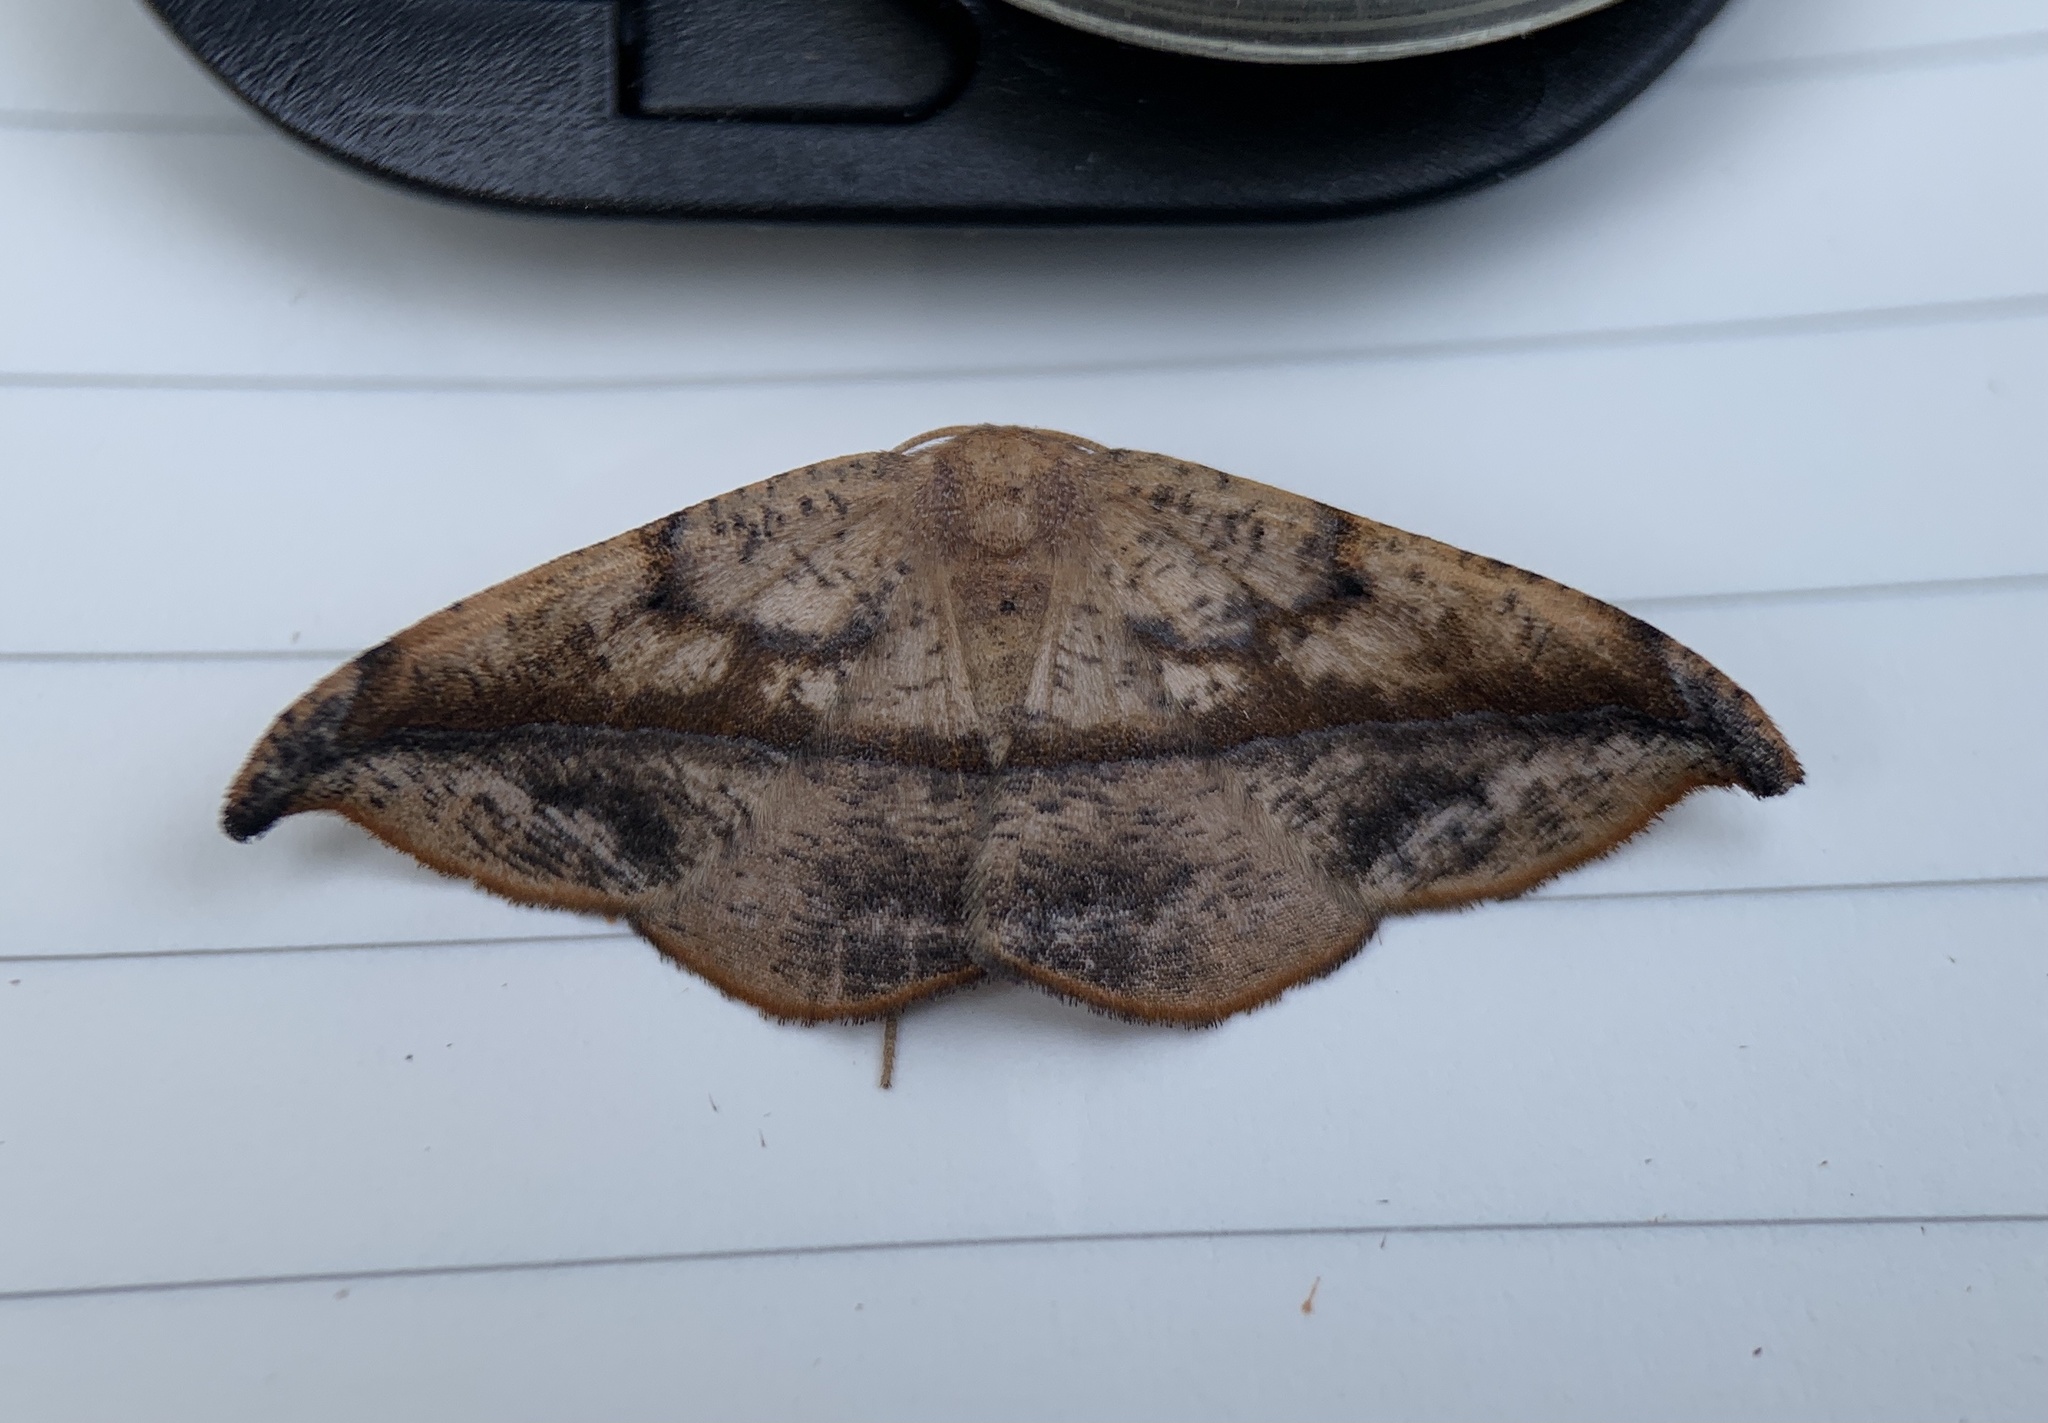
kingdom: Animalia
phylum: Arthropoda
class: Insecta
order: Lepidoptera
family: Geometridae
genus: Patalene
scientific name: Patalene olyzonaria
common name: Juniper geometer moth
